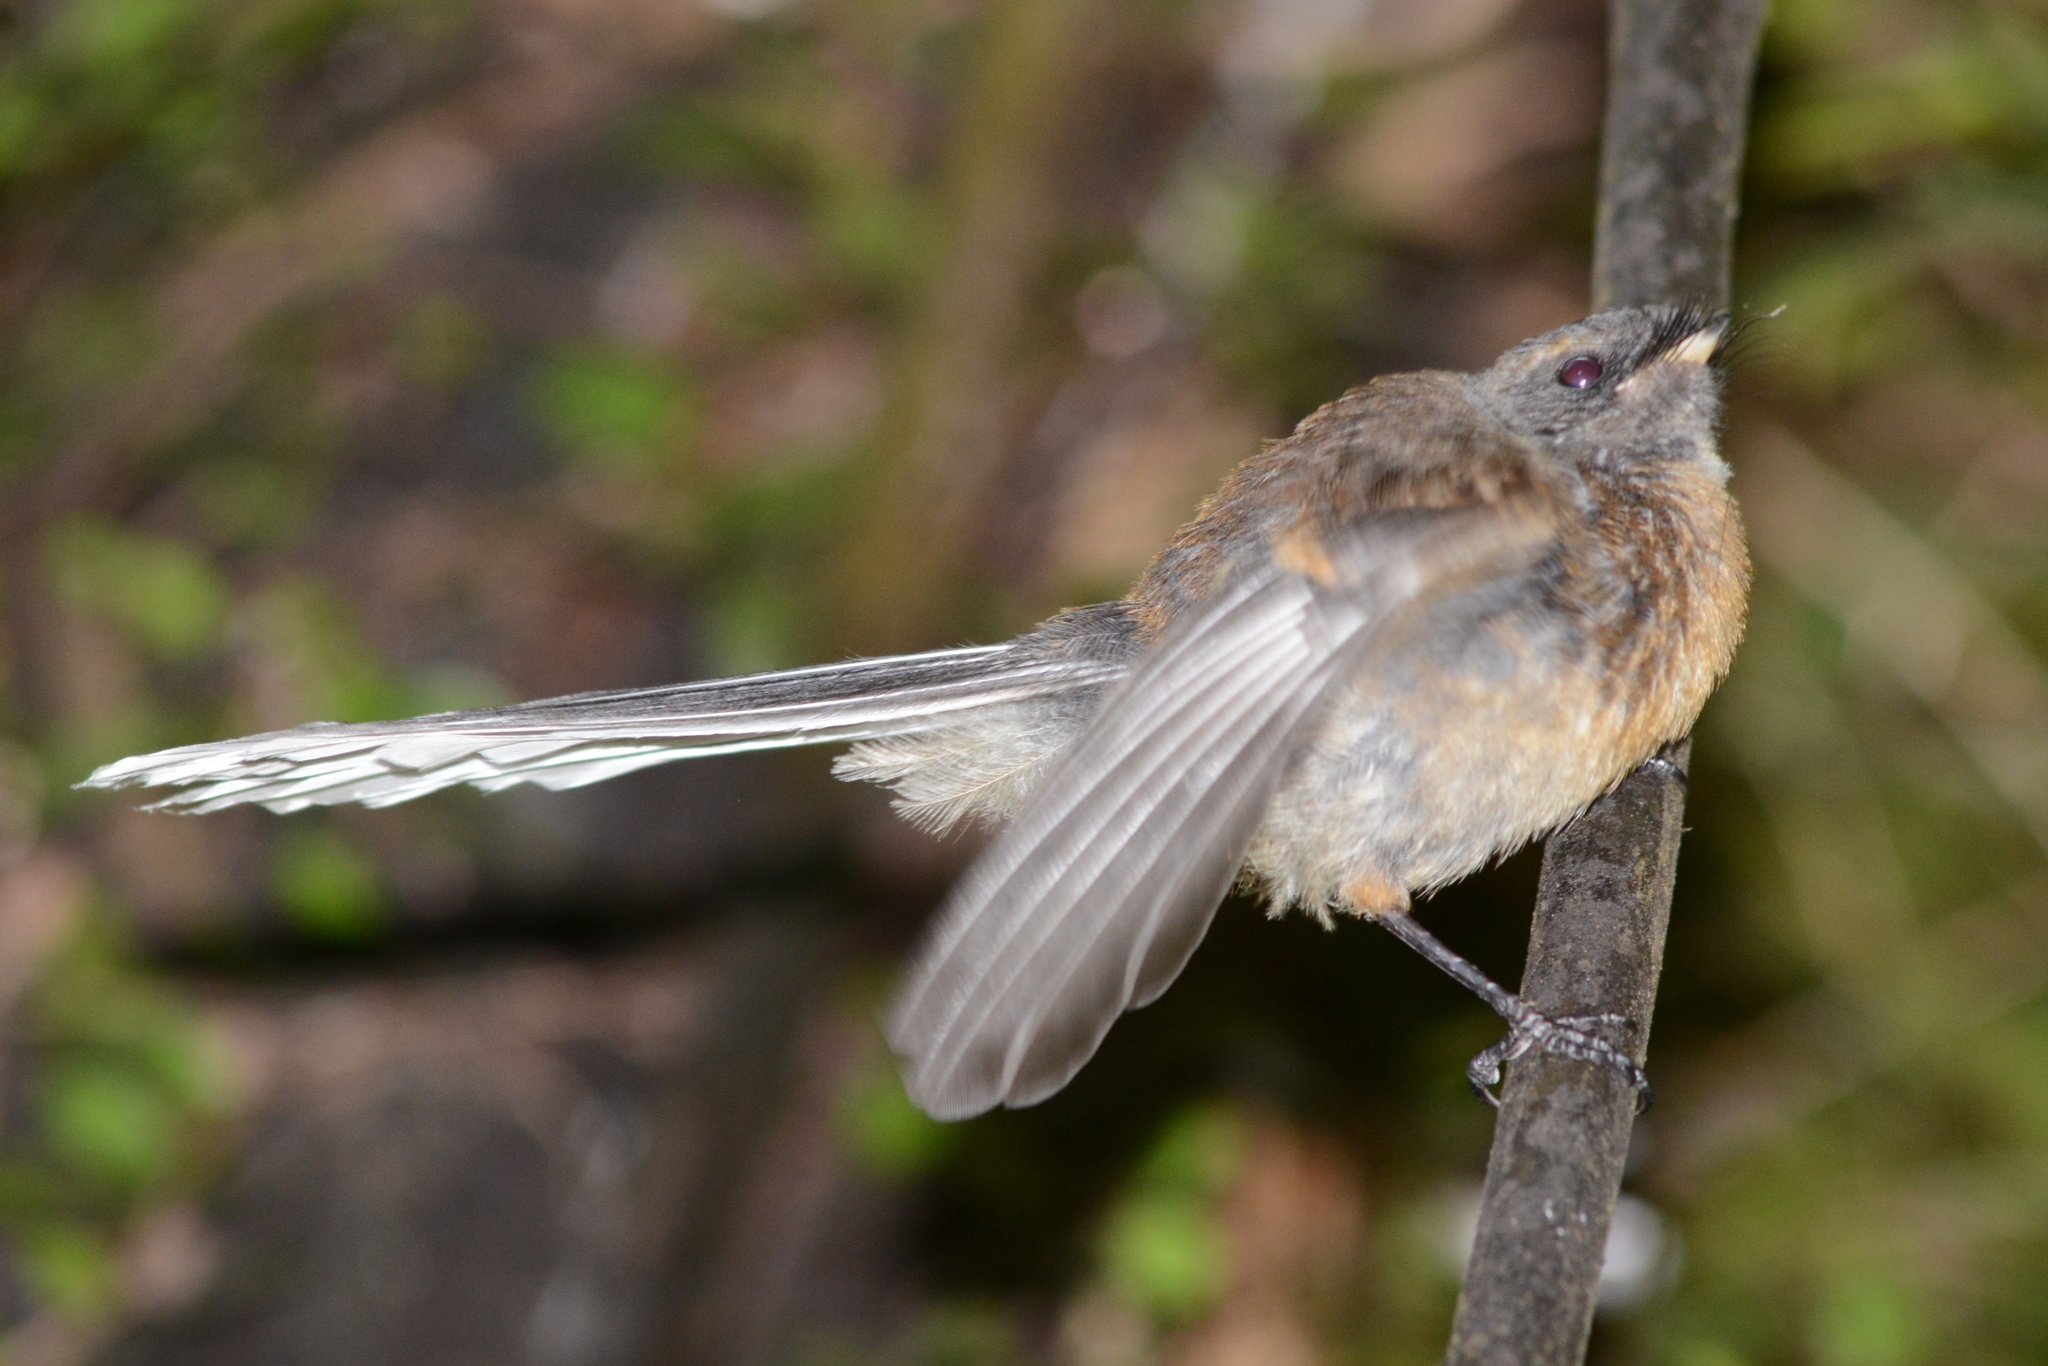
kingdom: Animalia
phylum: Chordata
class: Aves
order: Passeriformes
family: Rhipiduridae
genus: Rhipidura
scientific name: Rhipidura fuliginosa
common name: New zealand fantail
